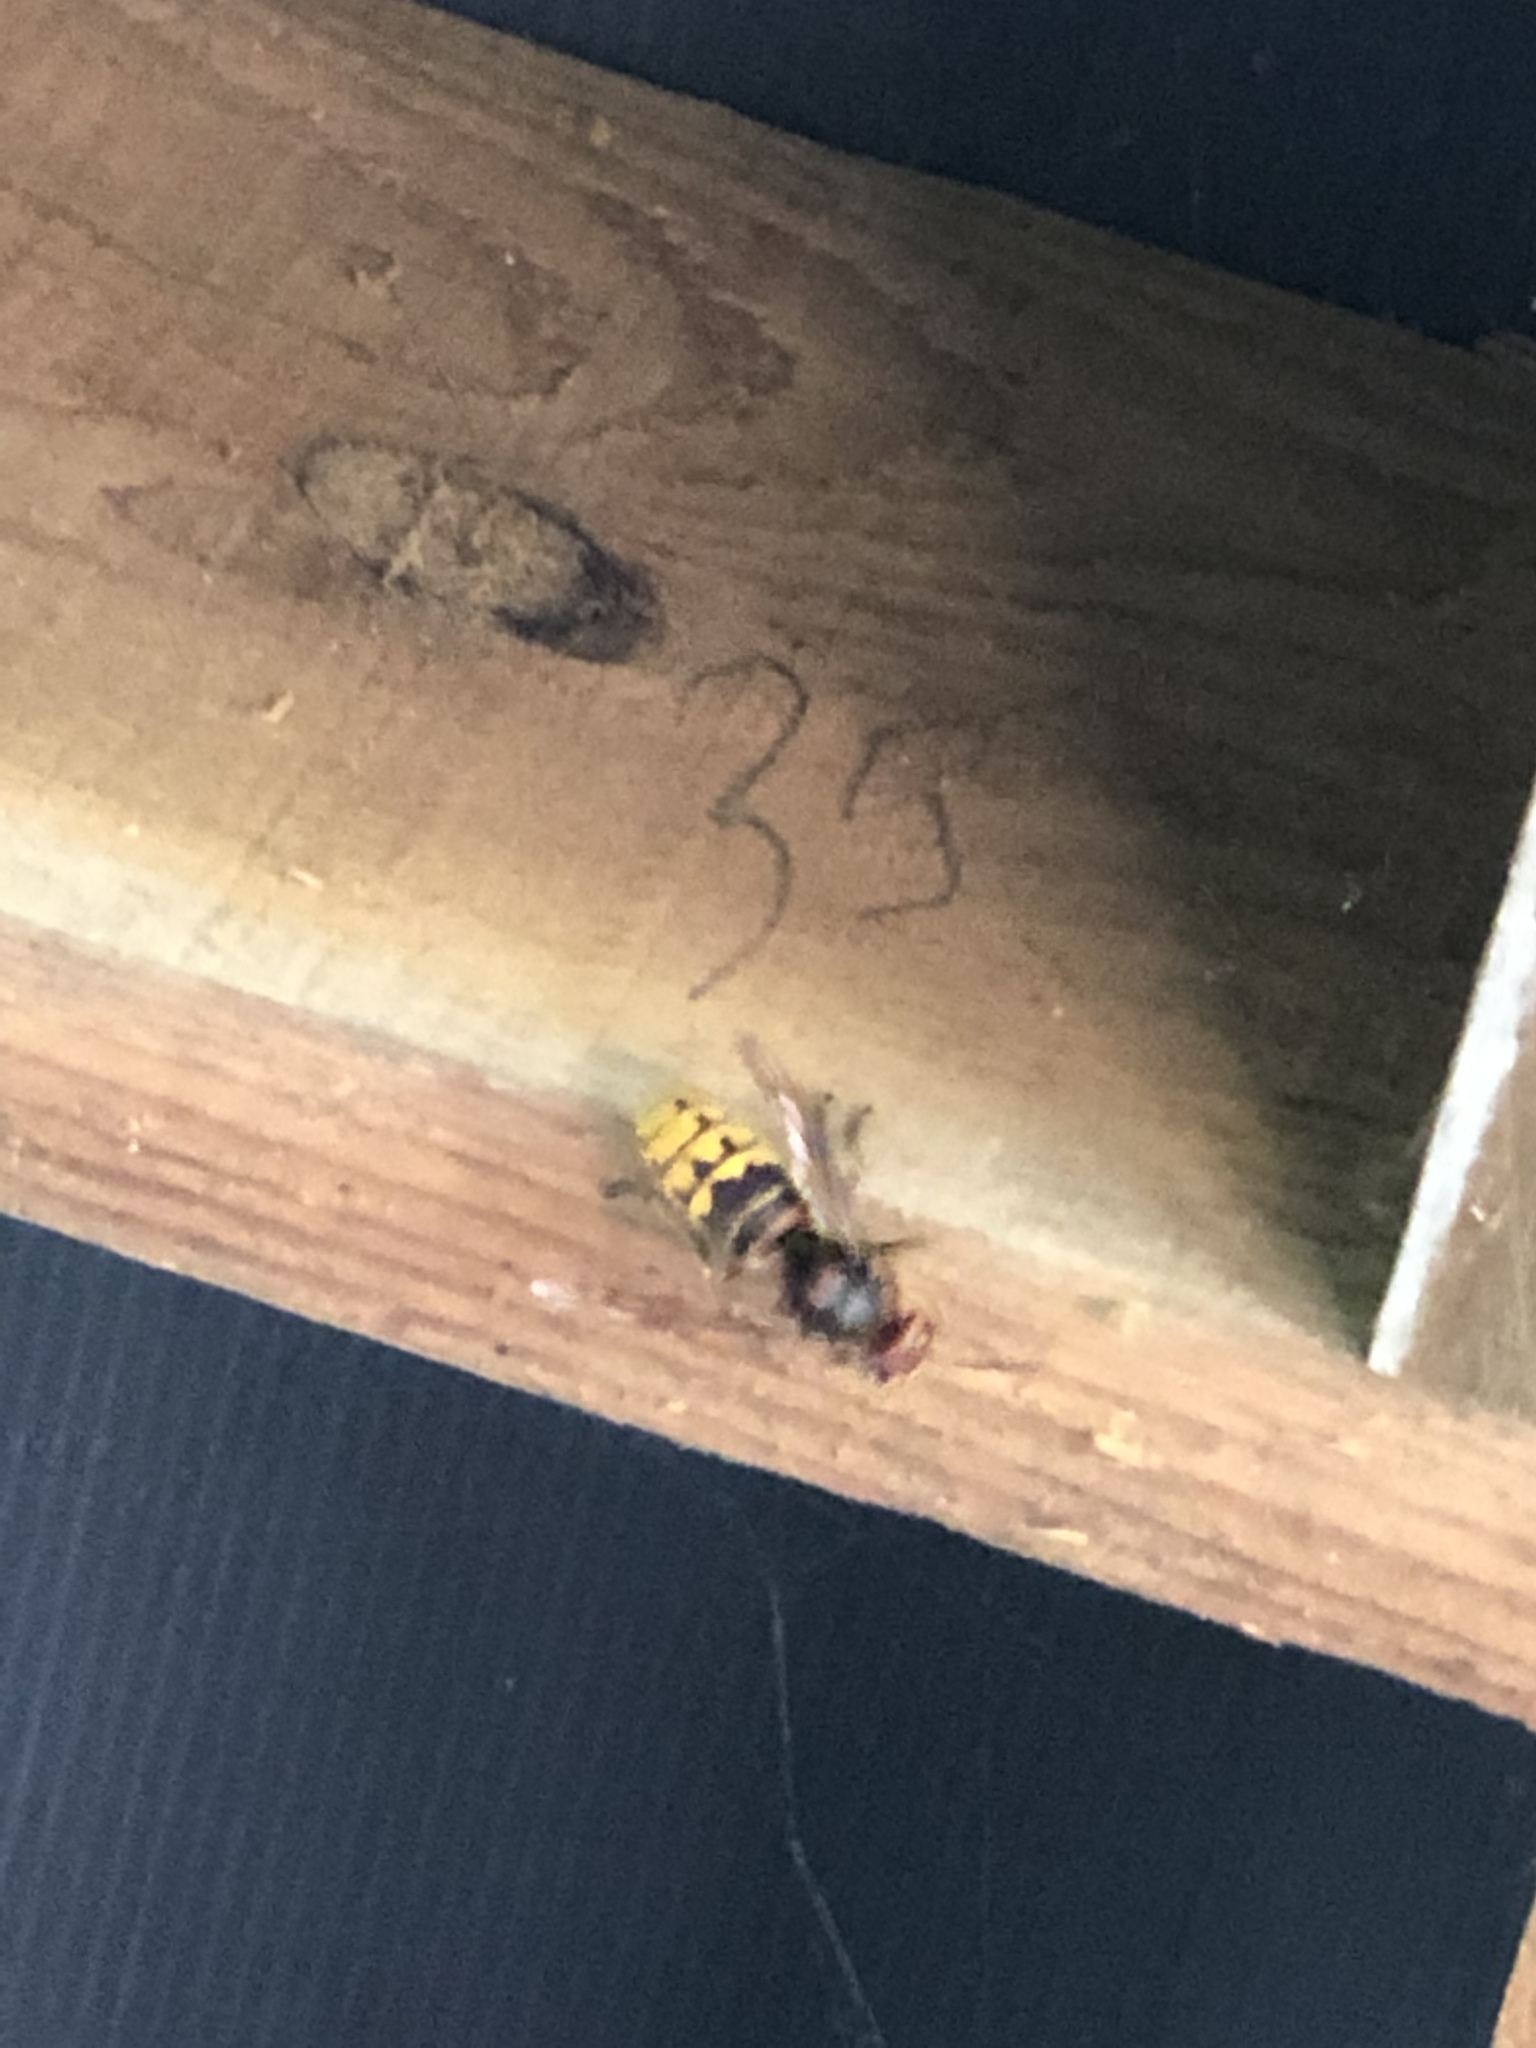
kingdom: Animalia
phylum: Arthropoda
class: Insecta
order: Hymenoptera
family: Vespidae
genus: Vespa
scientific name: Vespa crabro
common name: Hornet
